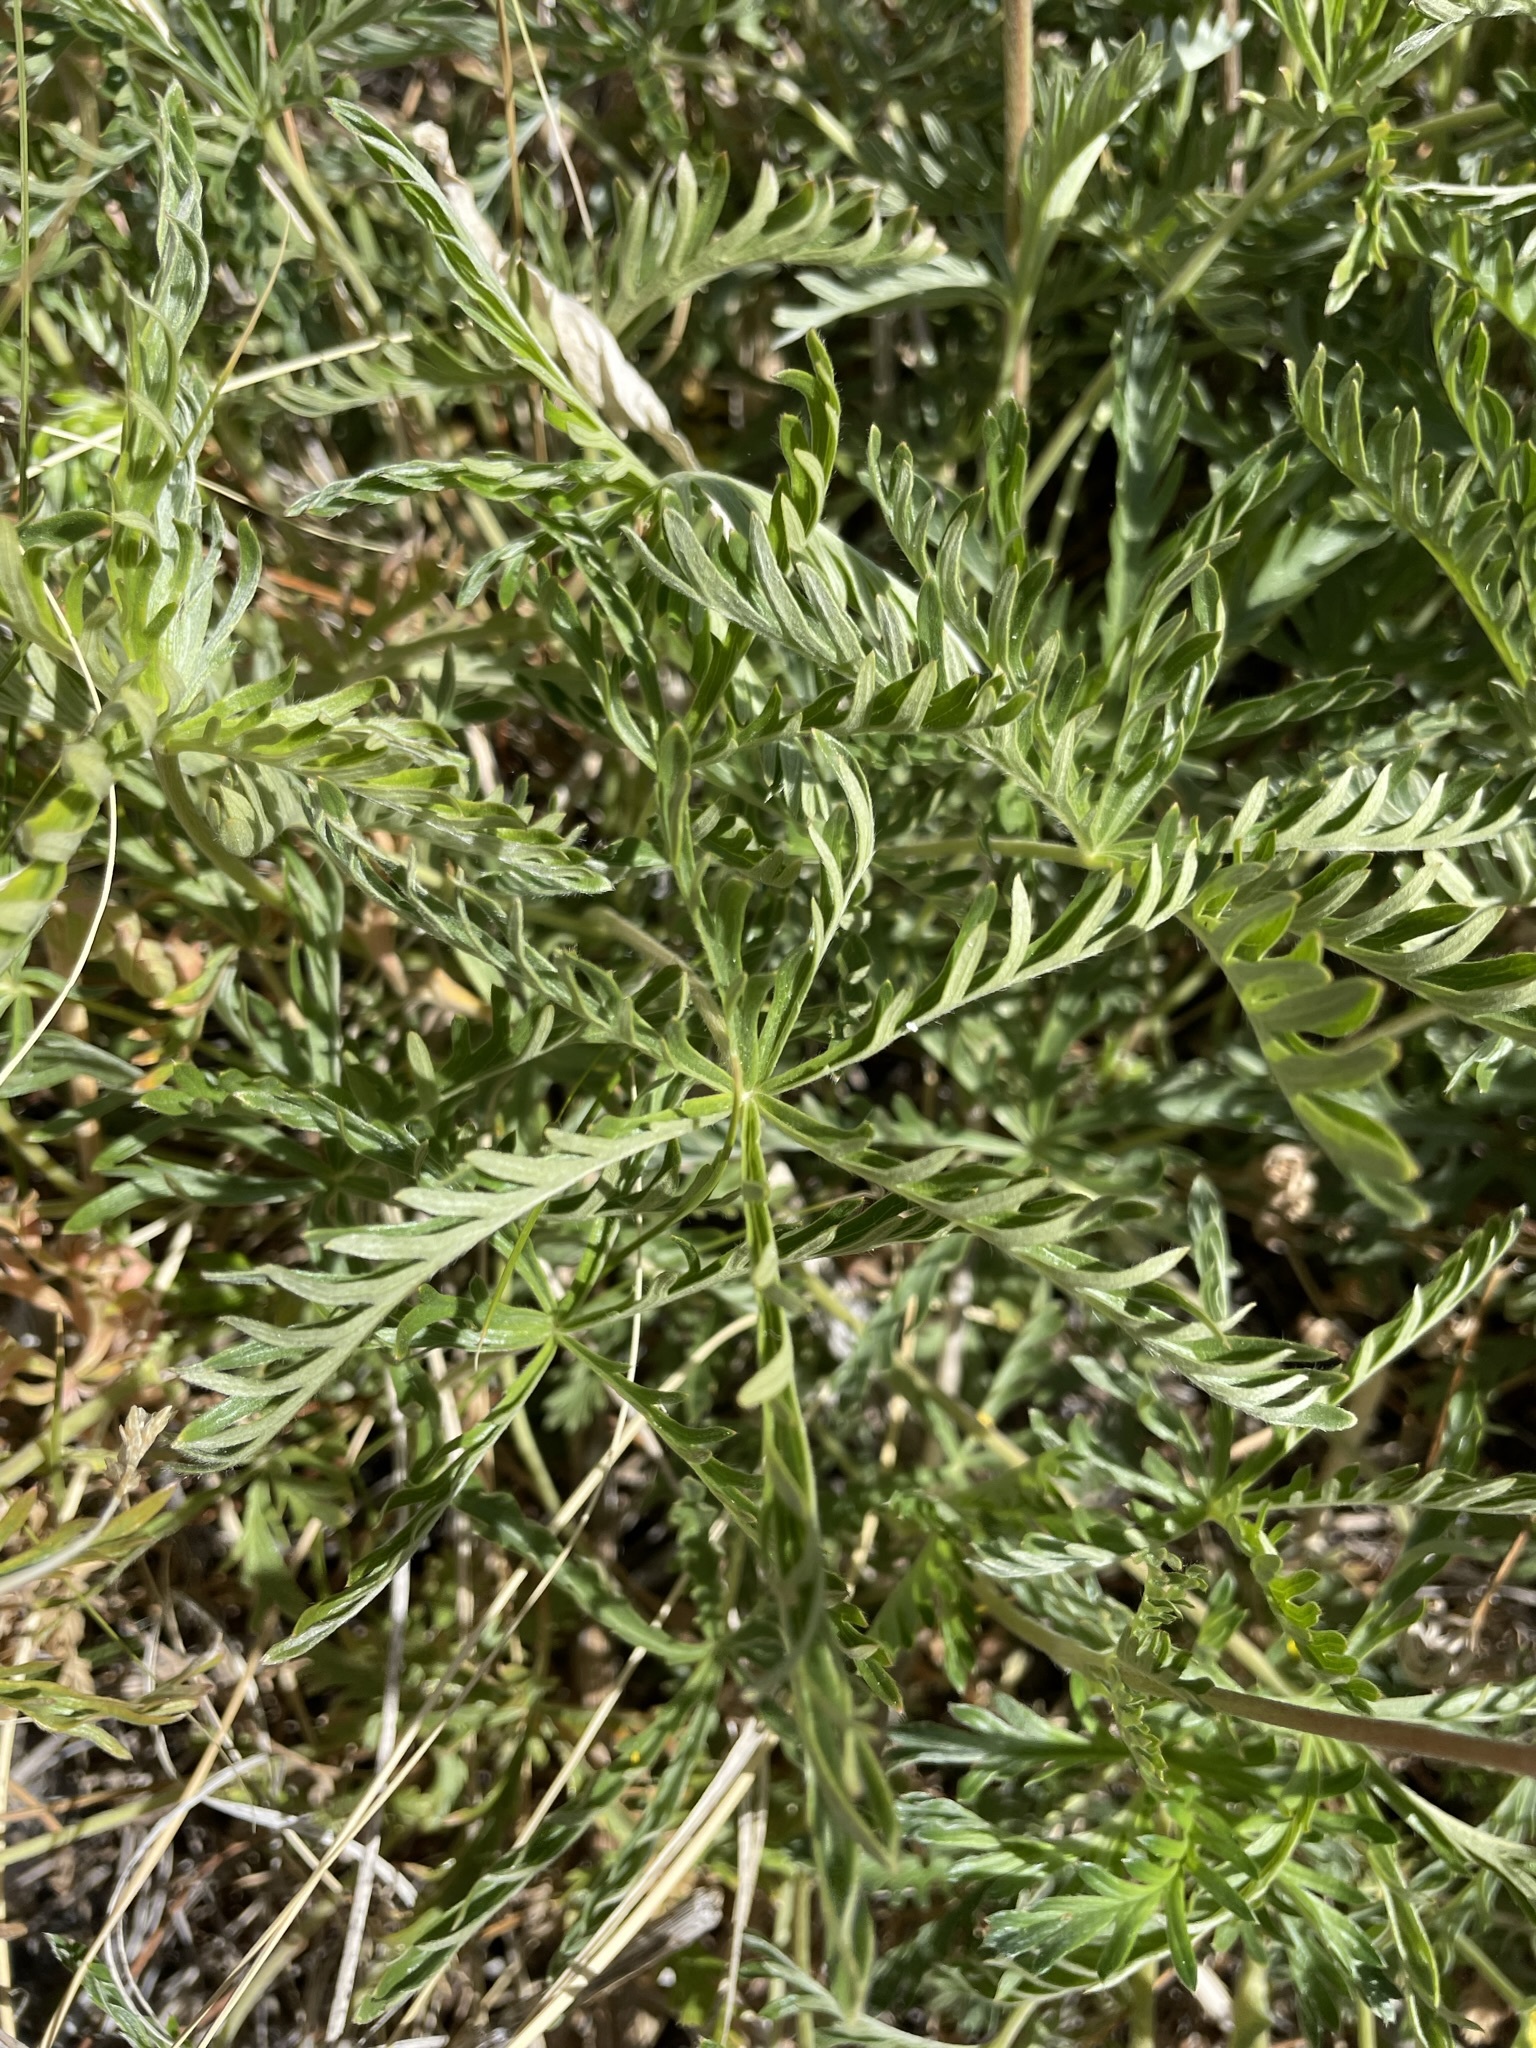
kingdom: Plantae
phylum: Tracheophyta
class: Magnoliopsida
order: Rosales
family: Rosaceae
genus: Potentilla
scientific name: Potentilla gracilis
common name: Graceful cinquefoil
